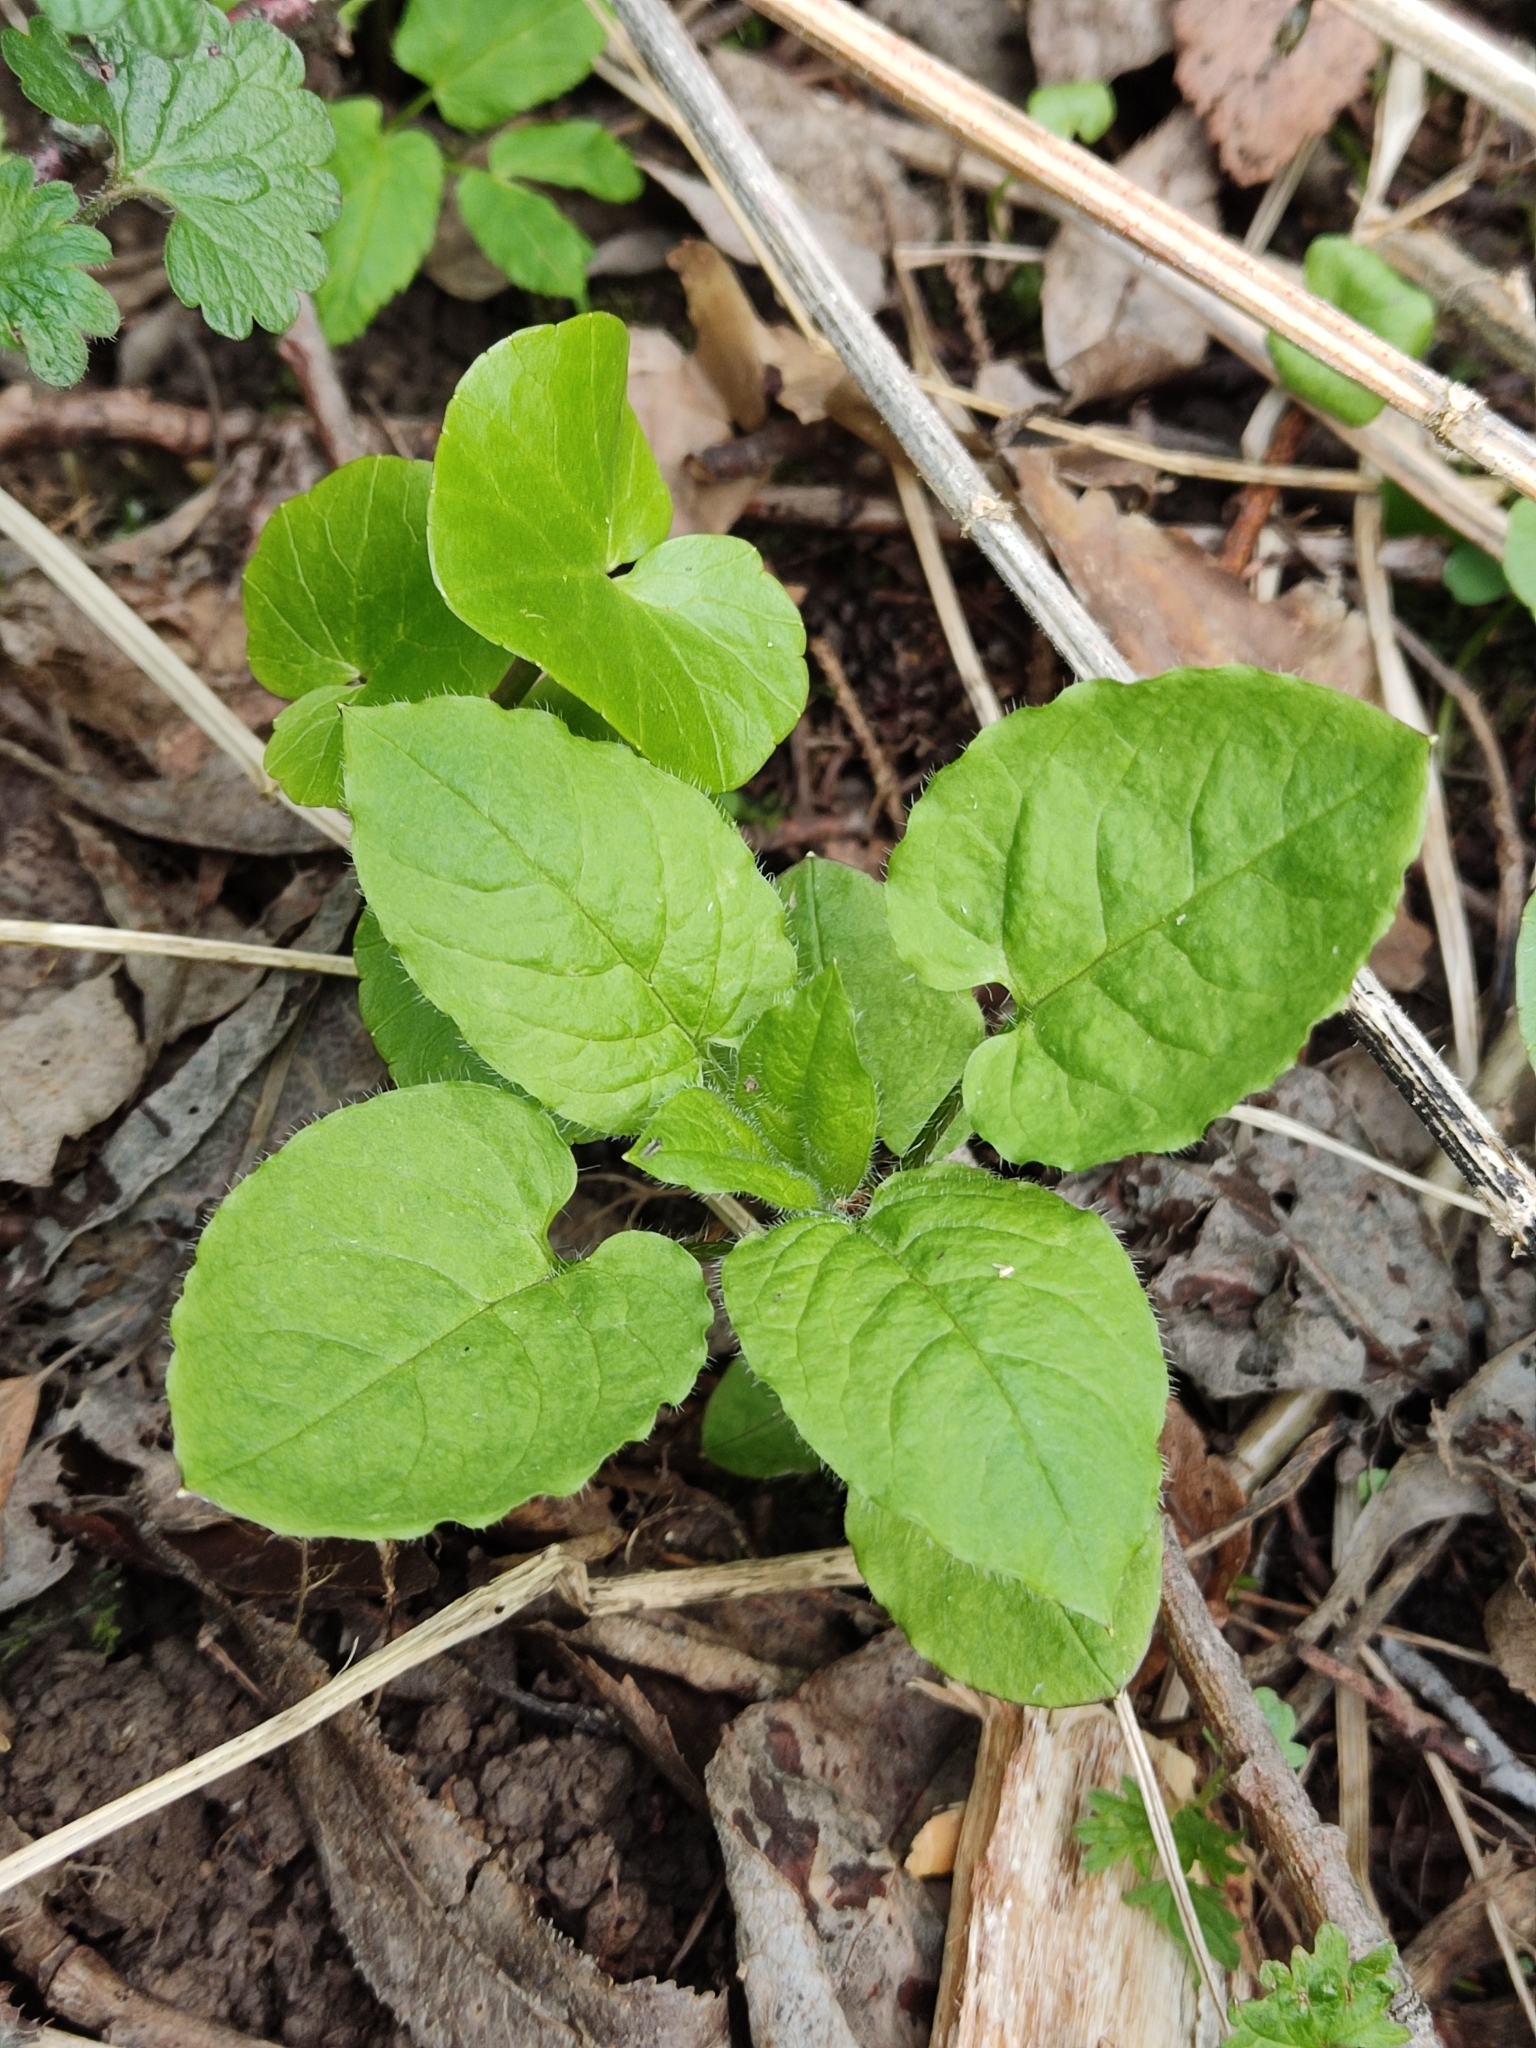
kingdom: Plantae
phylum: Tracheophyta
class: Magnoliopsida
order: Caryophyllales
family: Caryophyllaceae
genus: Stellaria
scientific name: Stellaria nemorum
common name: Wood stitchwort
